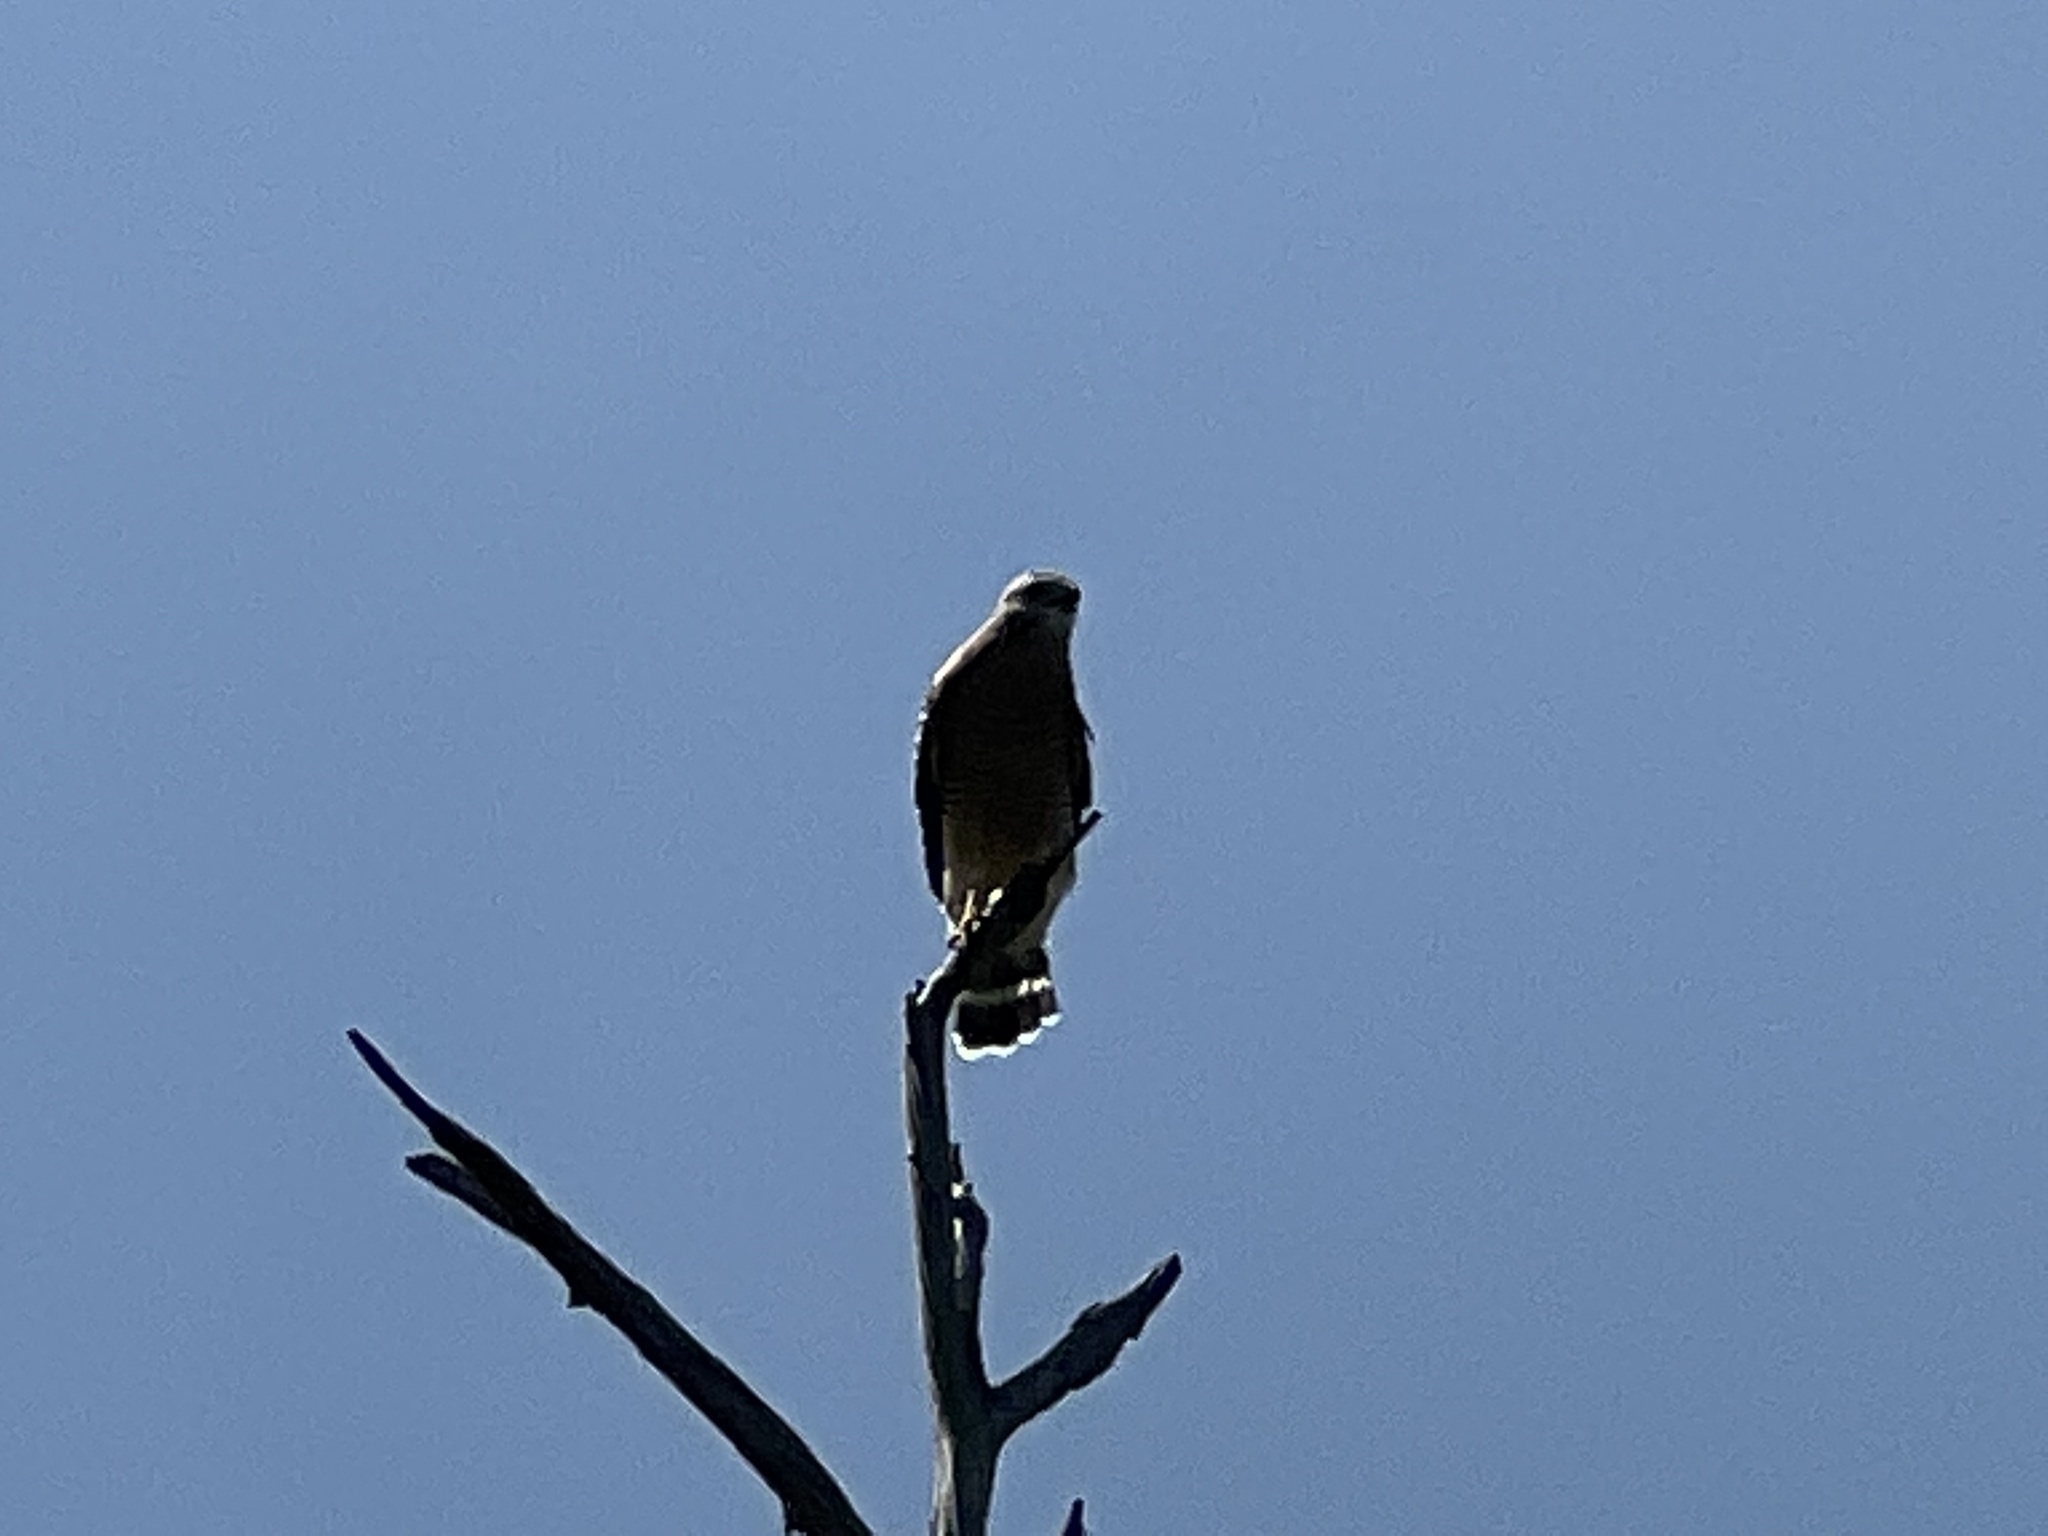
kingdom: Animalia
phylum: Chordata
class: Aves
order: Accipitriformes
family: Accipitridae
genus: Buteo
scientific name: Buteo lineatus
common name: Red-shouldered hawk
